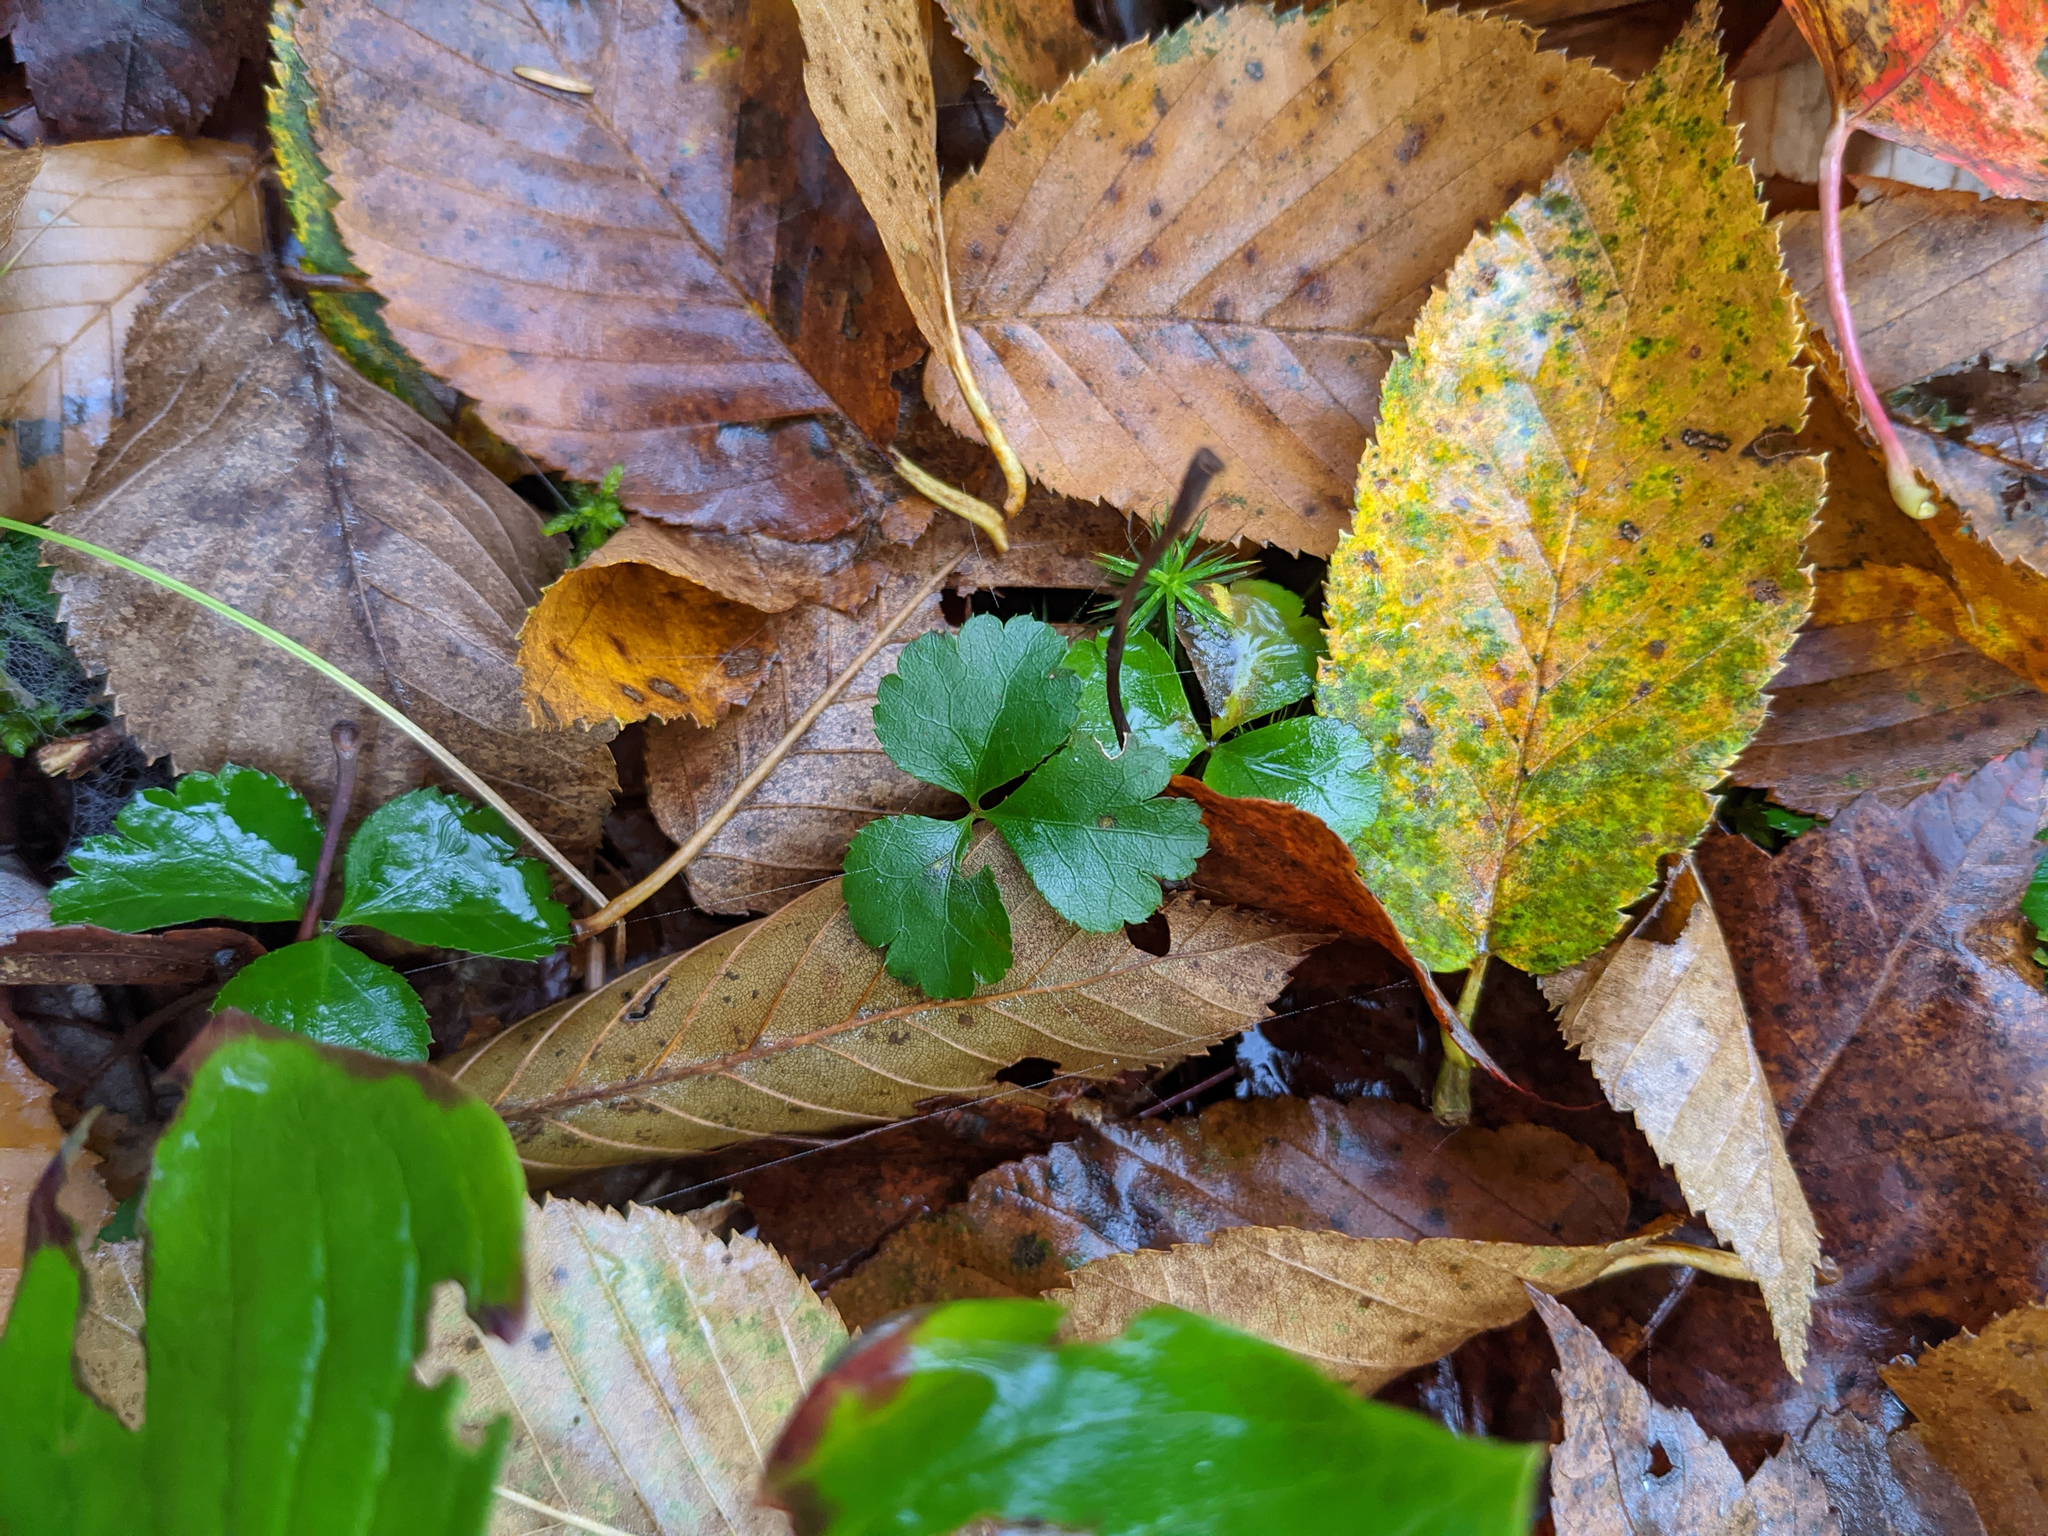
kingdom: Plantae
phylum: Tracheophyta
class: Magnoliopsida
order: Ranunculales
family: Ranunculaceae
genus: Coptis
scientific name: Coptis trifolia
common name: Canker-root
